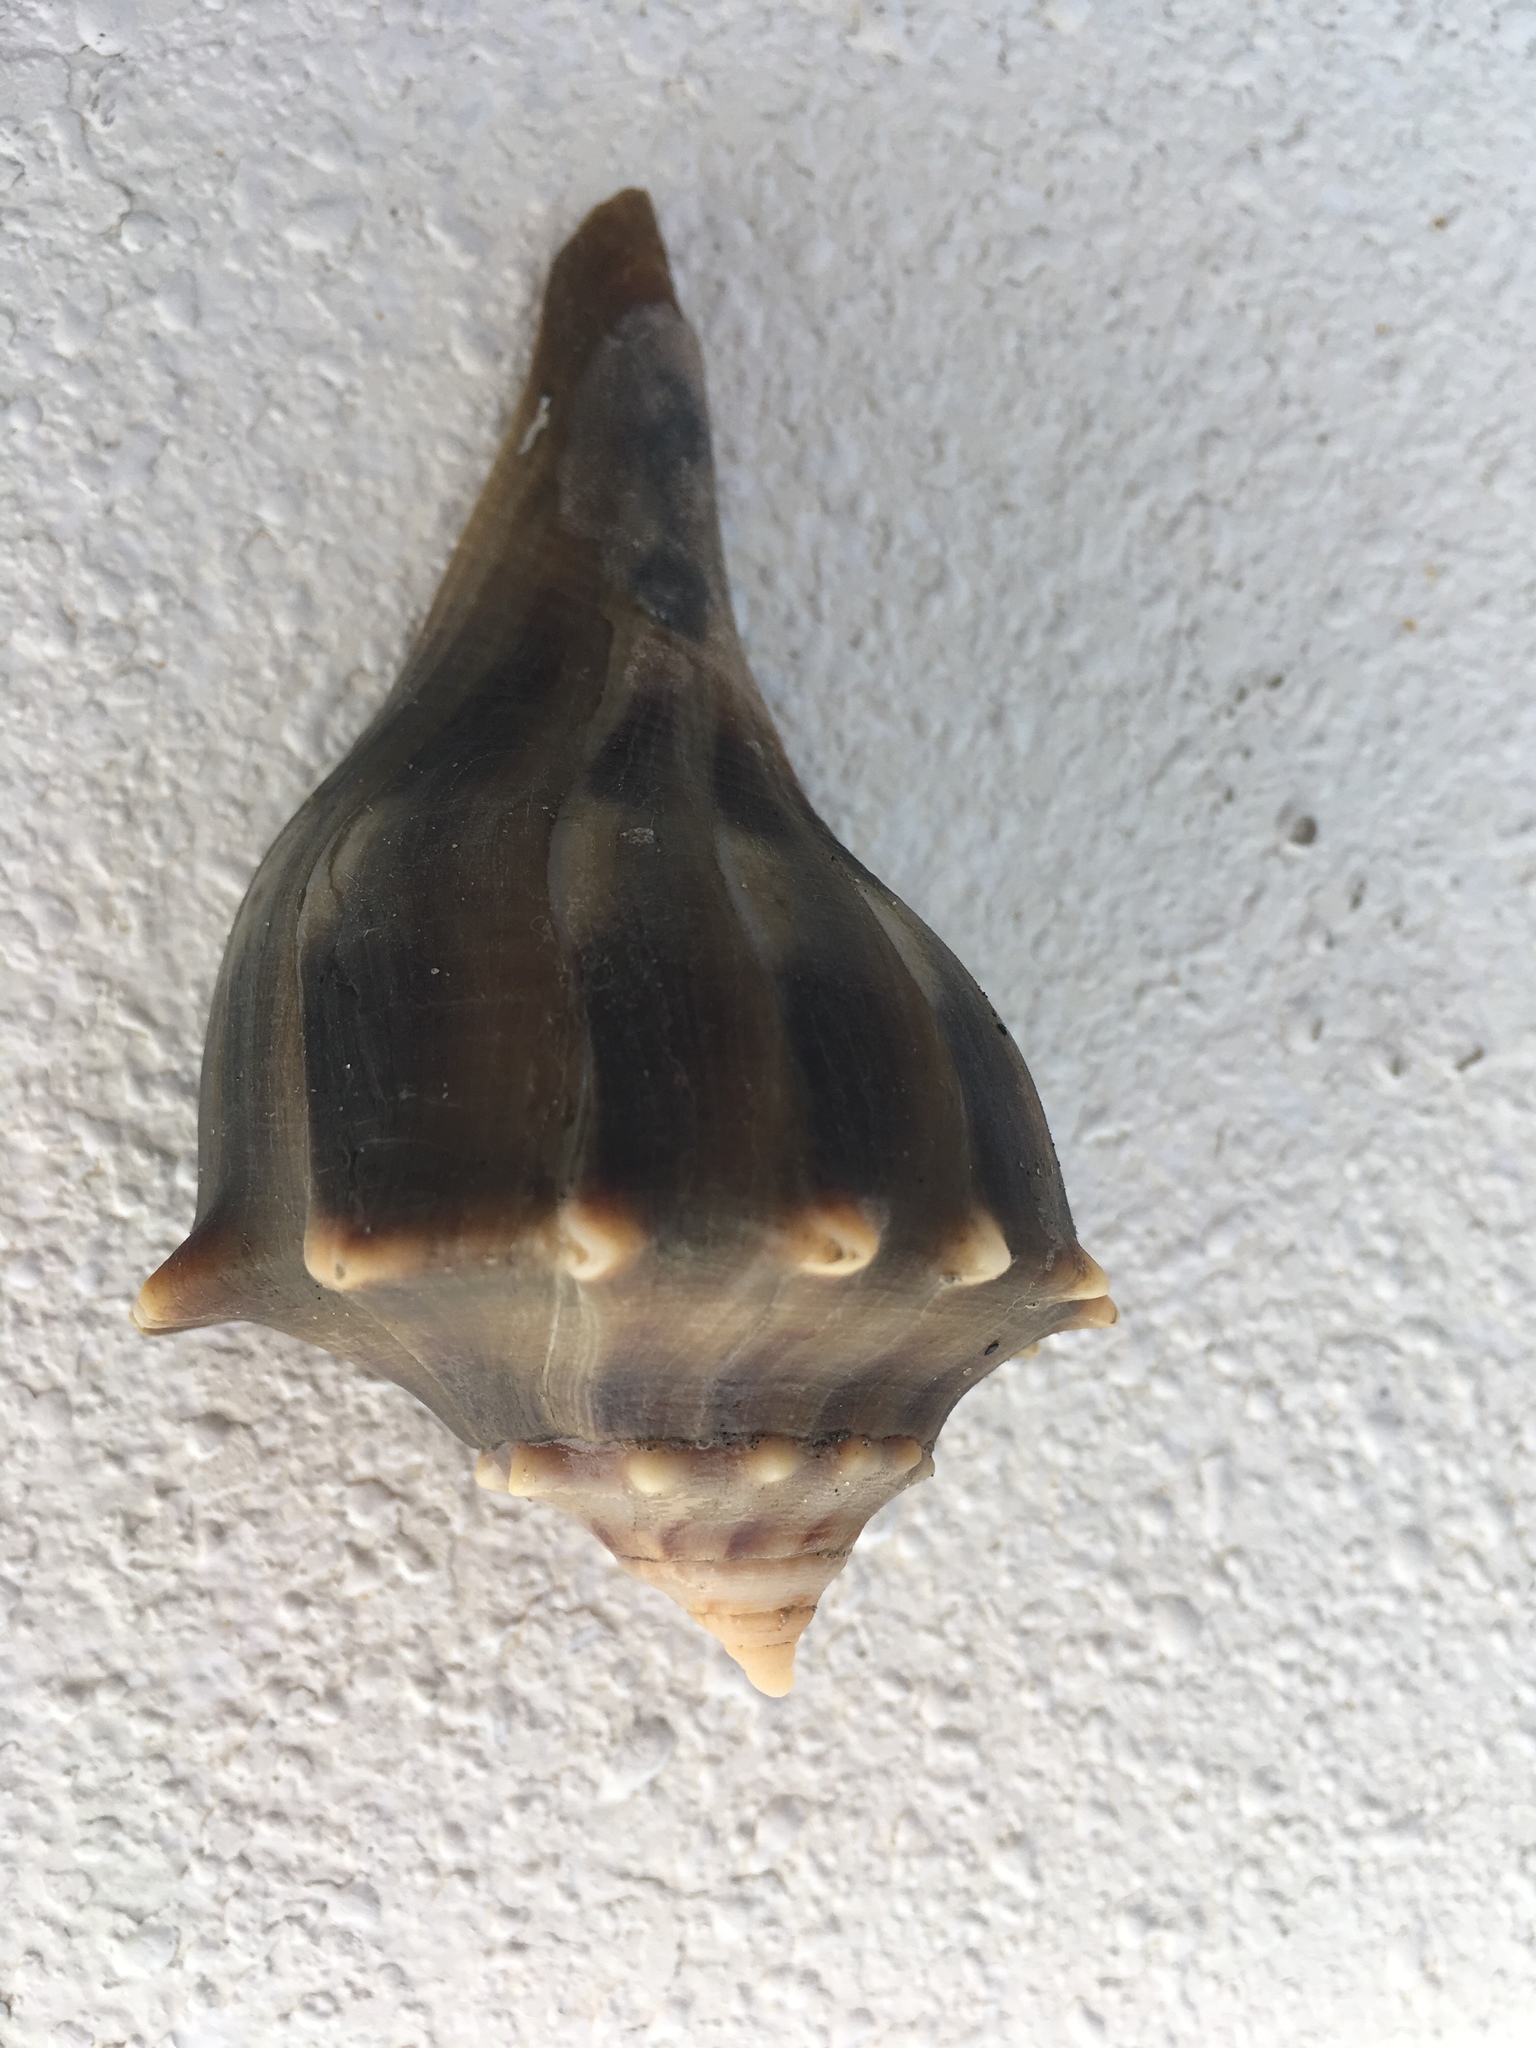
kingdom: Animalia
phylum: Mollusca
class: Gastropoda
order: Neogastropoda
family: Busyconidae
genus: Sinistrofulgur
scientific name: Sinistrofulgur sinistrum
